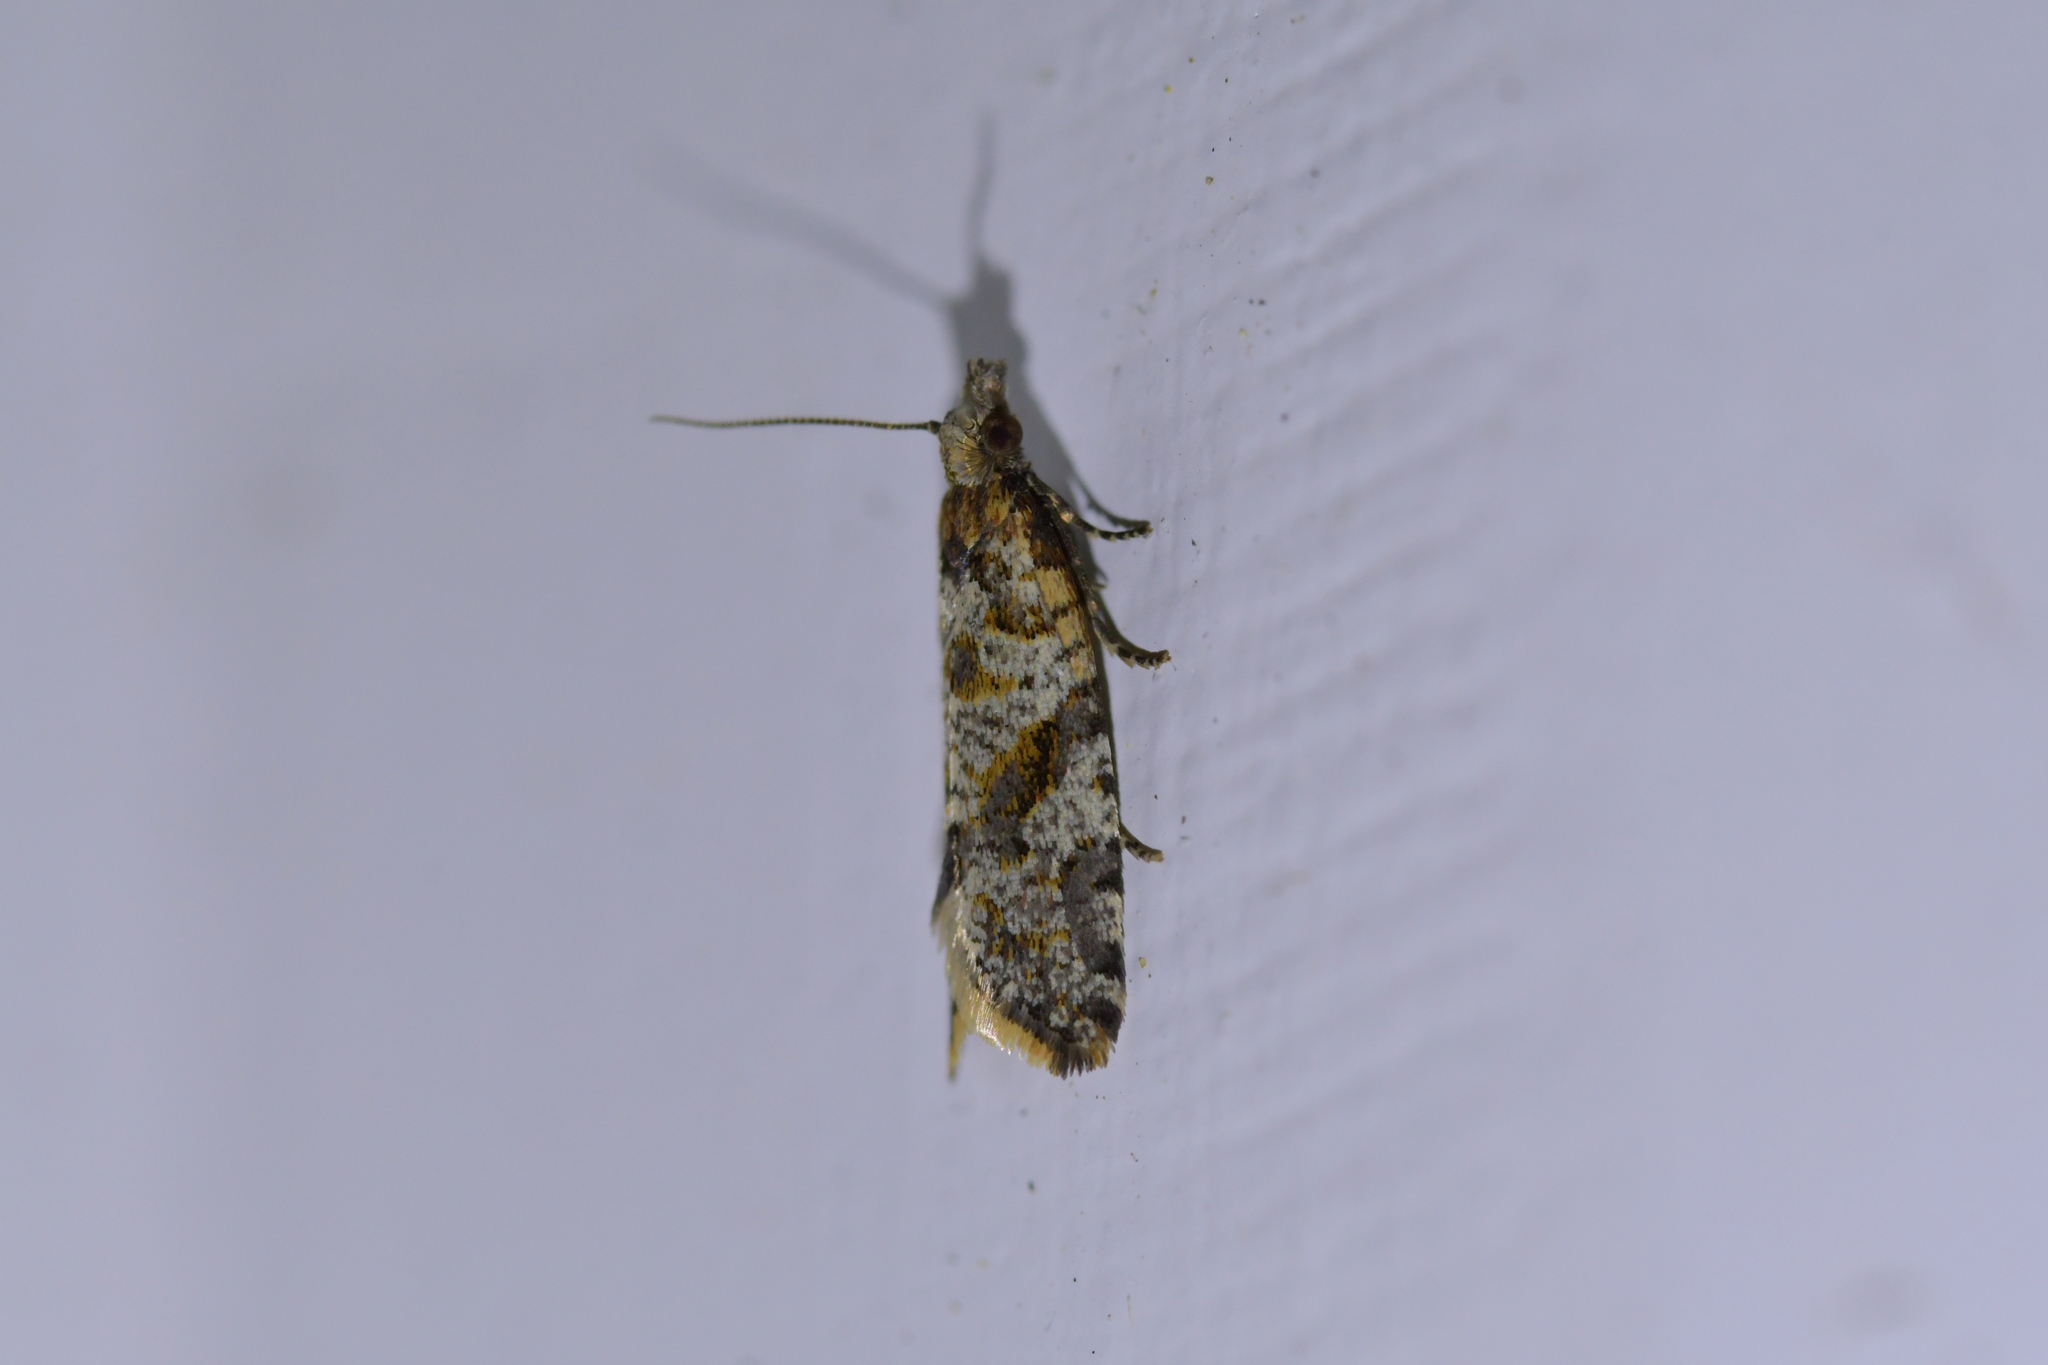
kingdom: Animalia
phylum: Arthropoda
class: Insecta
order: Lepidoptera
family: Tortricidae
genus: Capua
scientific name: Capua semiferana
